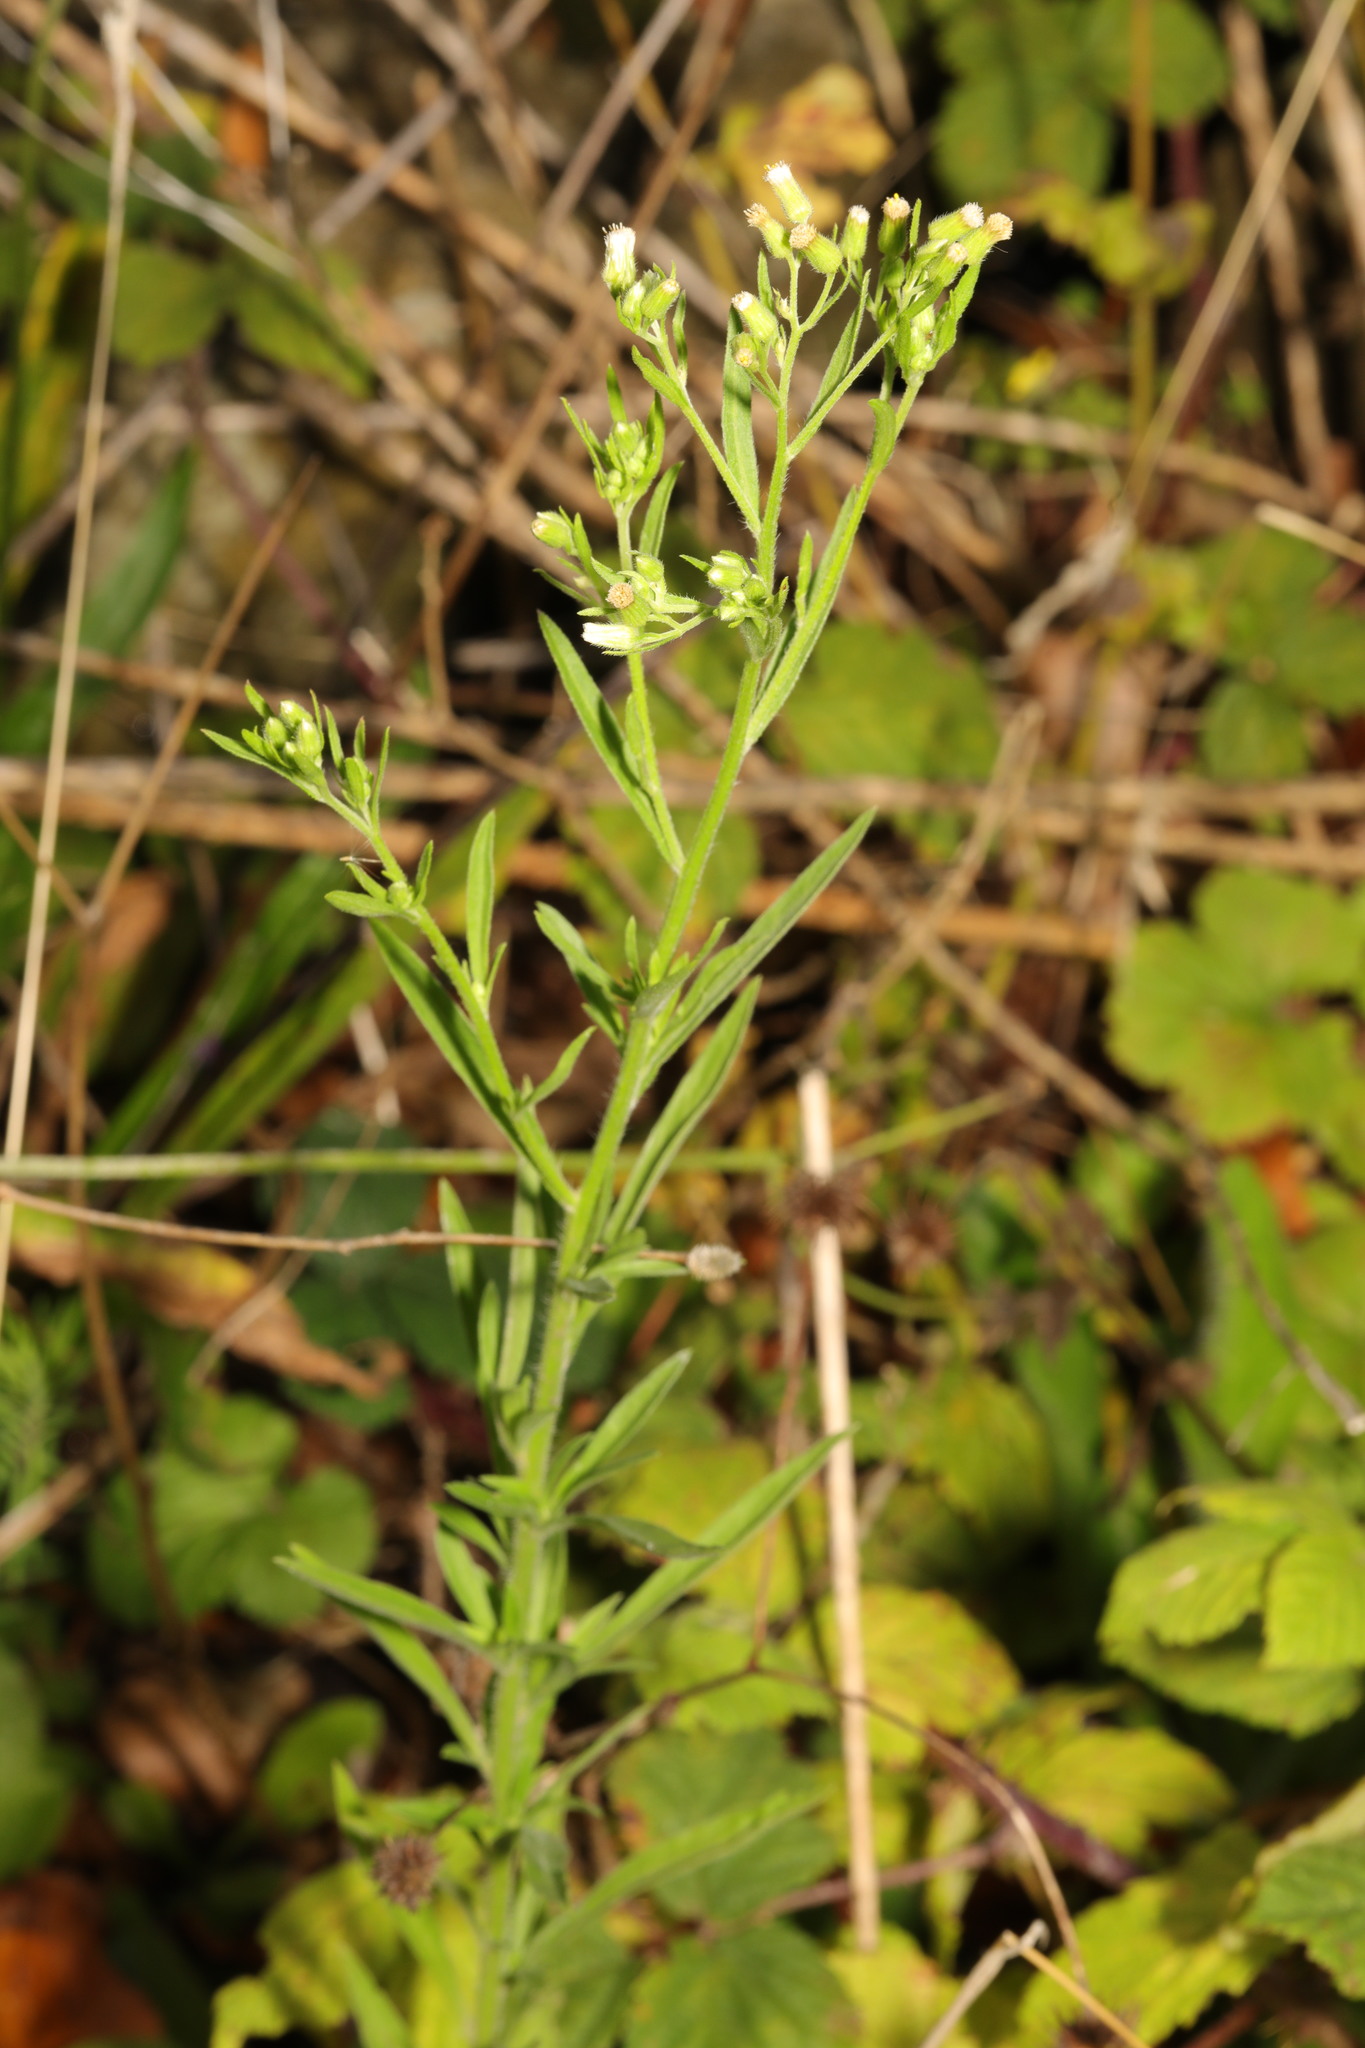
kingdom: Plantae
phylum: Tracheophyta
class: Magnoliopsida
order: Asterales
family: Asteraceae
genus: Erigeron
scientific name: Erigeron sumatrensis
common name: Daisy
